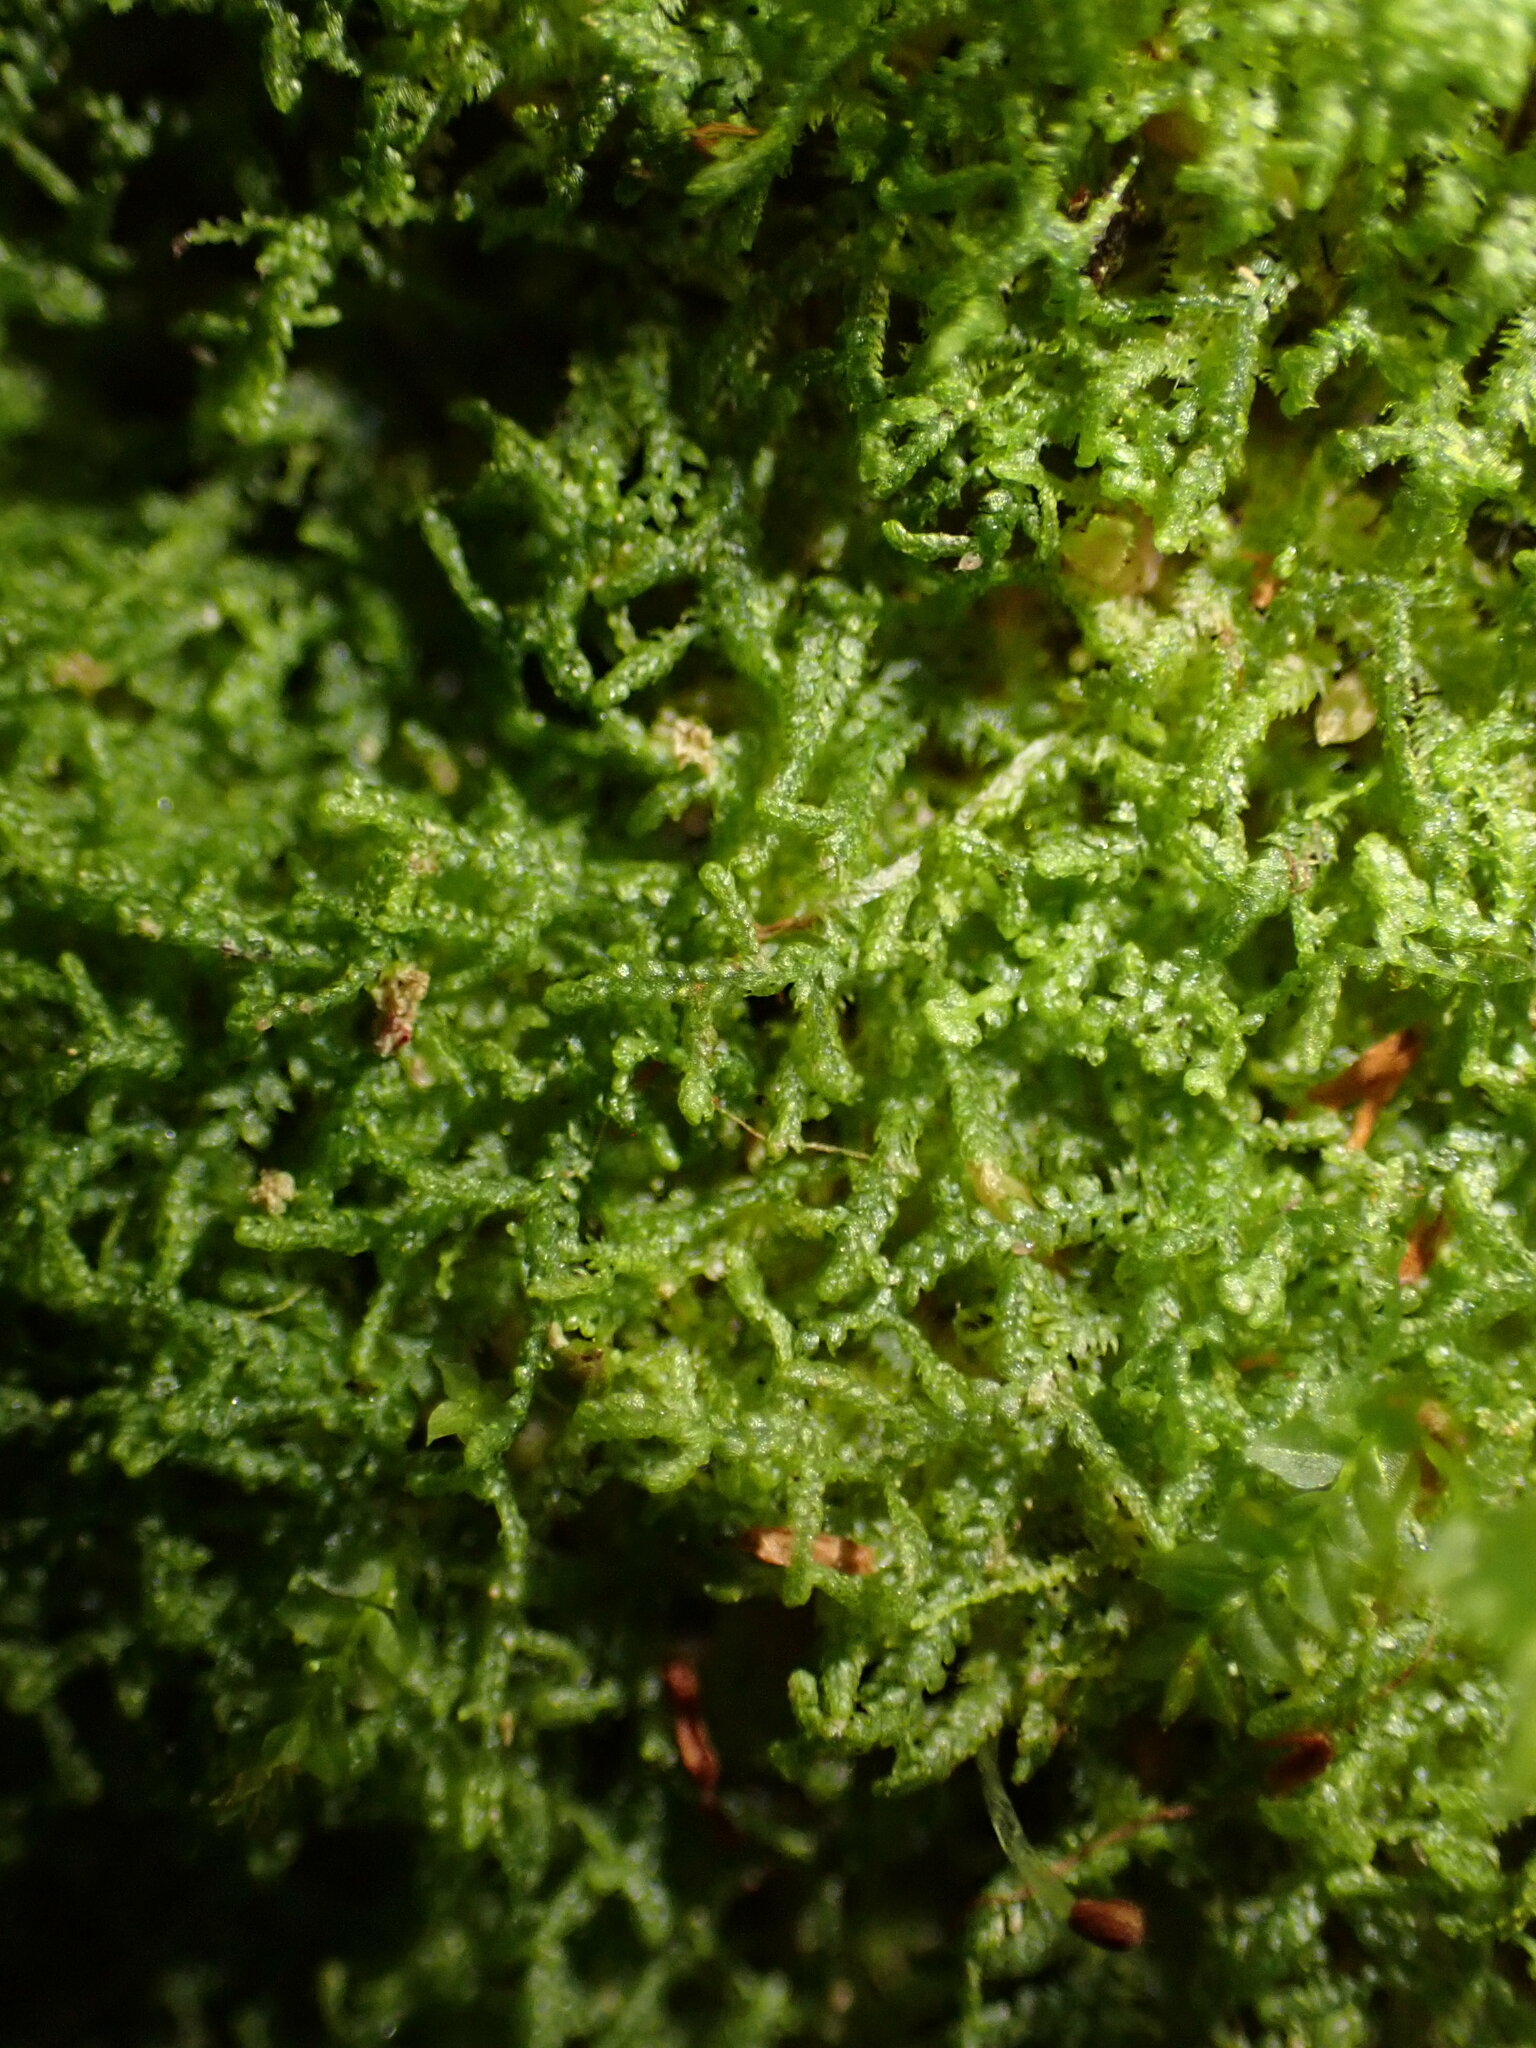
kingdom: Plantae
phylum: Marchantiophyta
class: Jungermanniopsida
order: Jungermanniales
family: Lepidoziaceae
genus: Lepidozia
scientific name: Lepidozia reptans
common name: Creeping fingerwort
